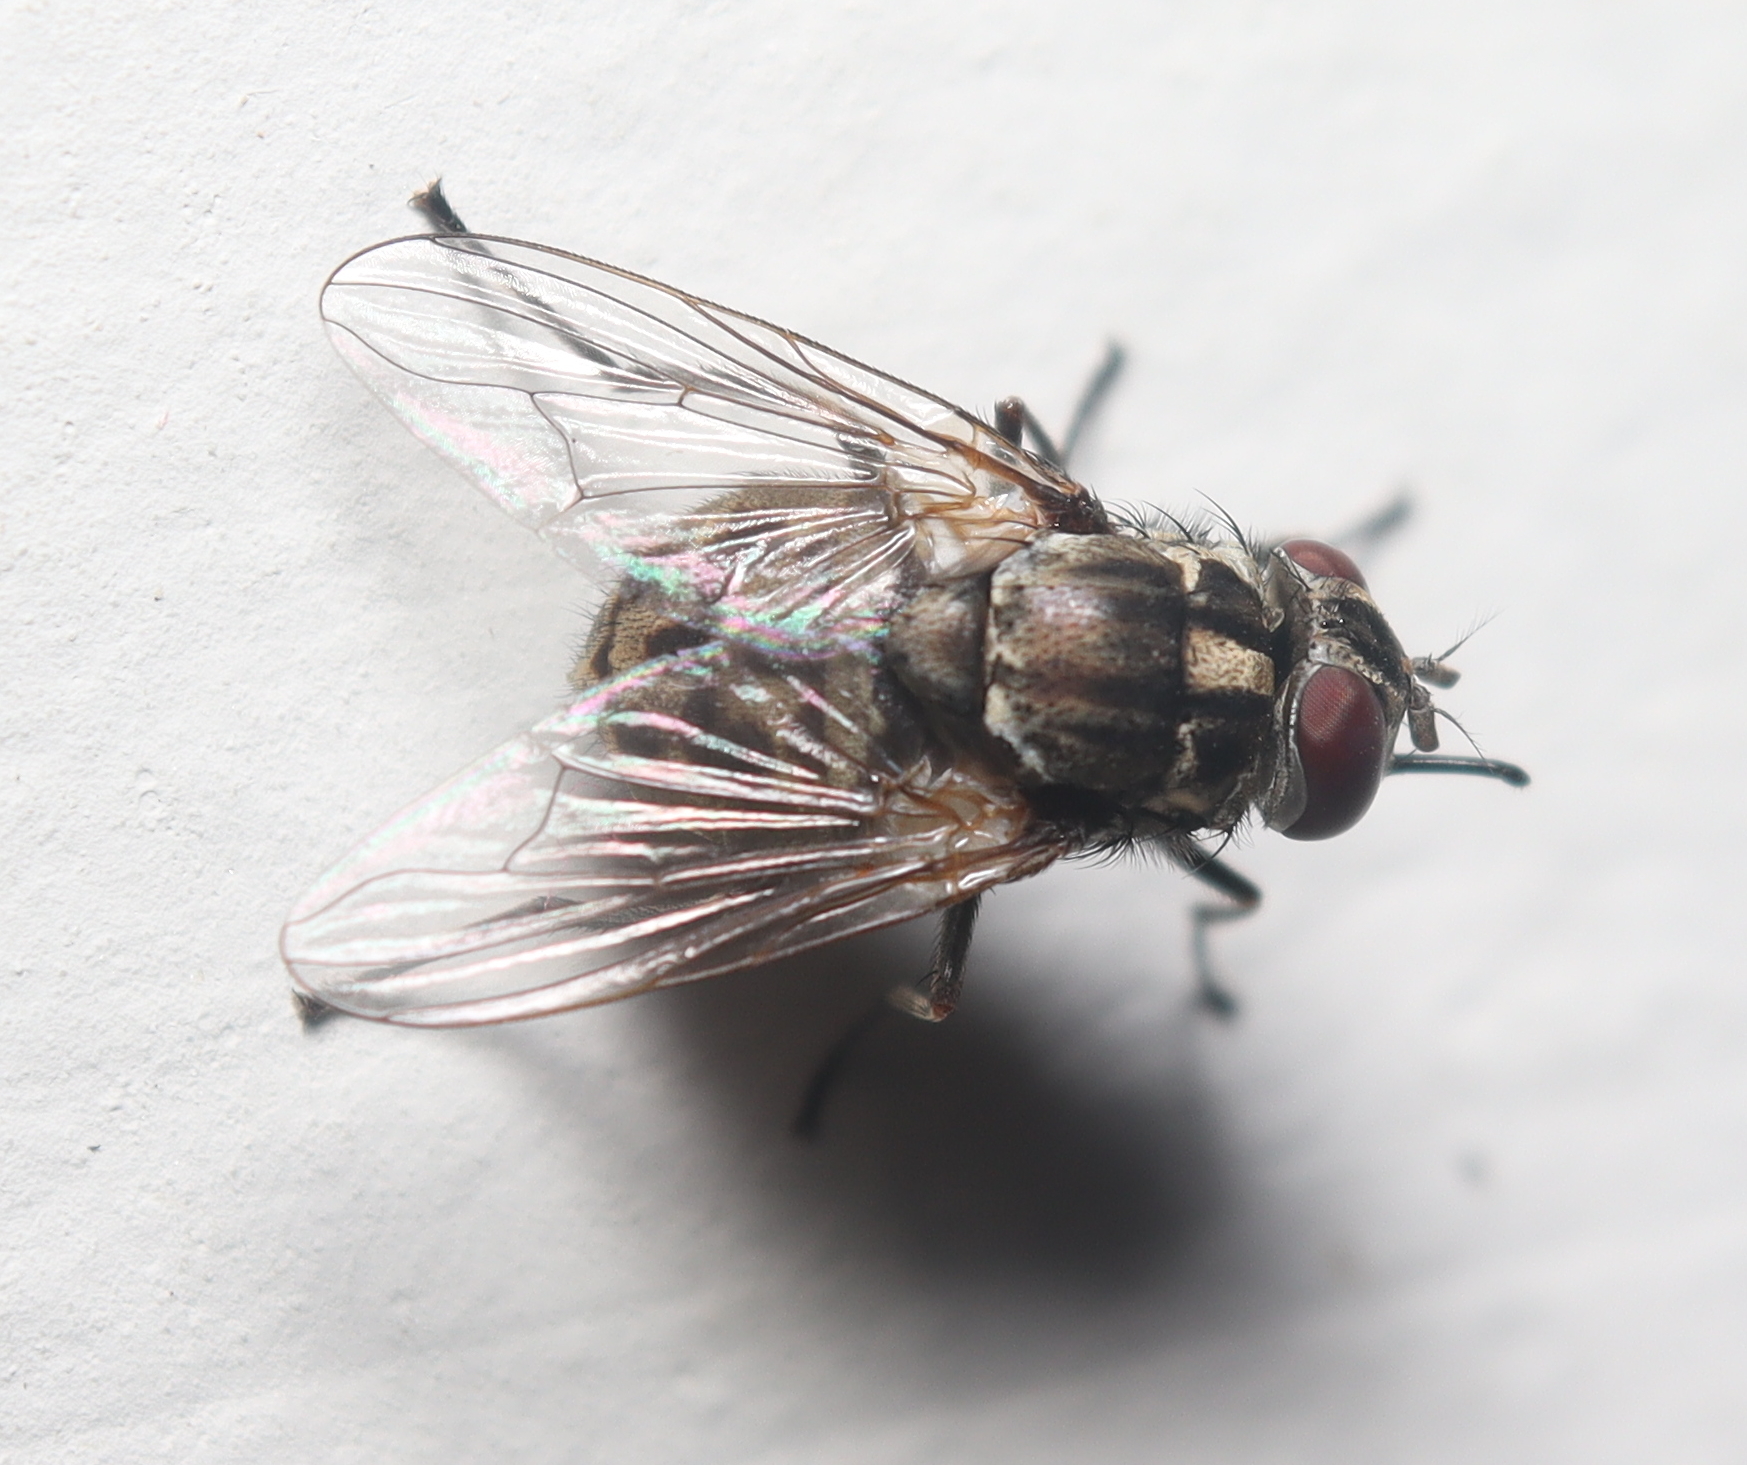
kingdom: Animalia
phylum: Arthropoda
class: Insecta
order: Diptera
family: Muscidae
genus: Stomoxys
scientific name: Stomoxys calcitrans
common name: Stable fly
